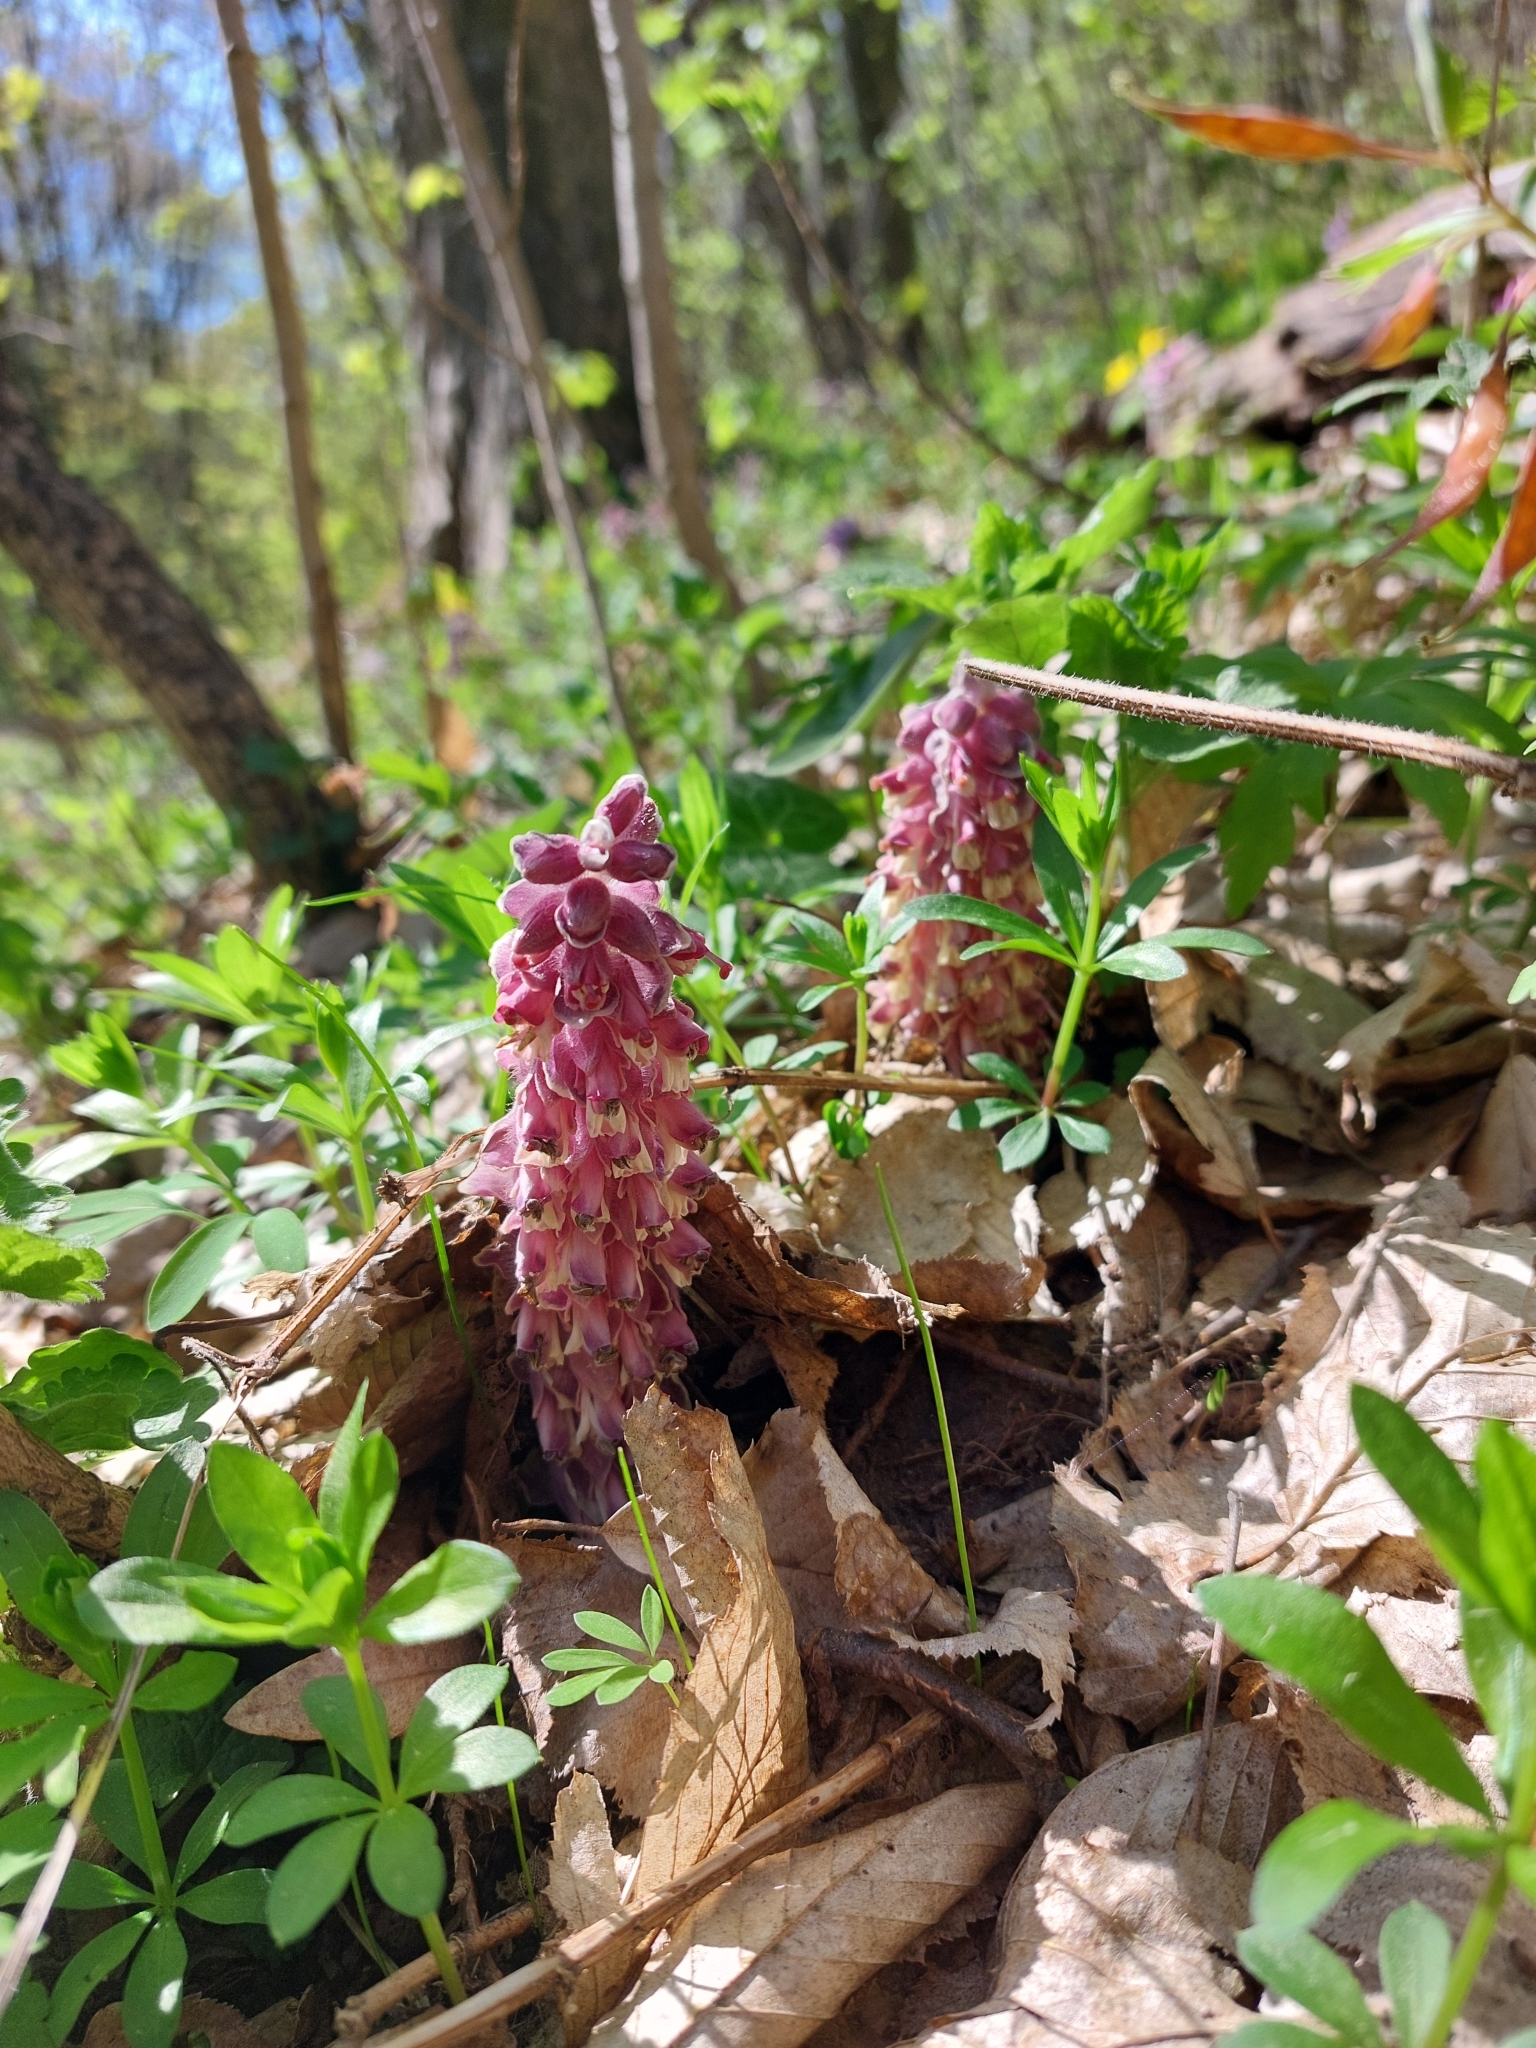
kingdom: Plantae
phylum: Tracheophyta
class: Magnoliopsida
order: Lamiales
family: Orobanchaceae
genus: Lathraea
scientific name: Lathraea squamaria
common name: Toothwort
